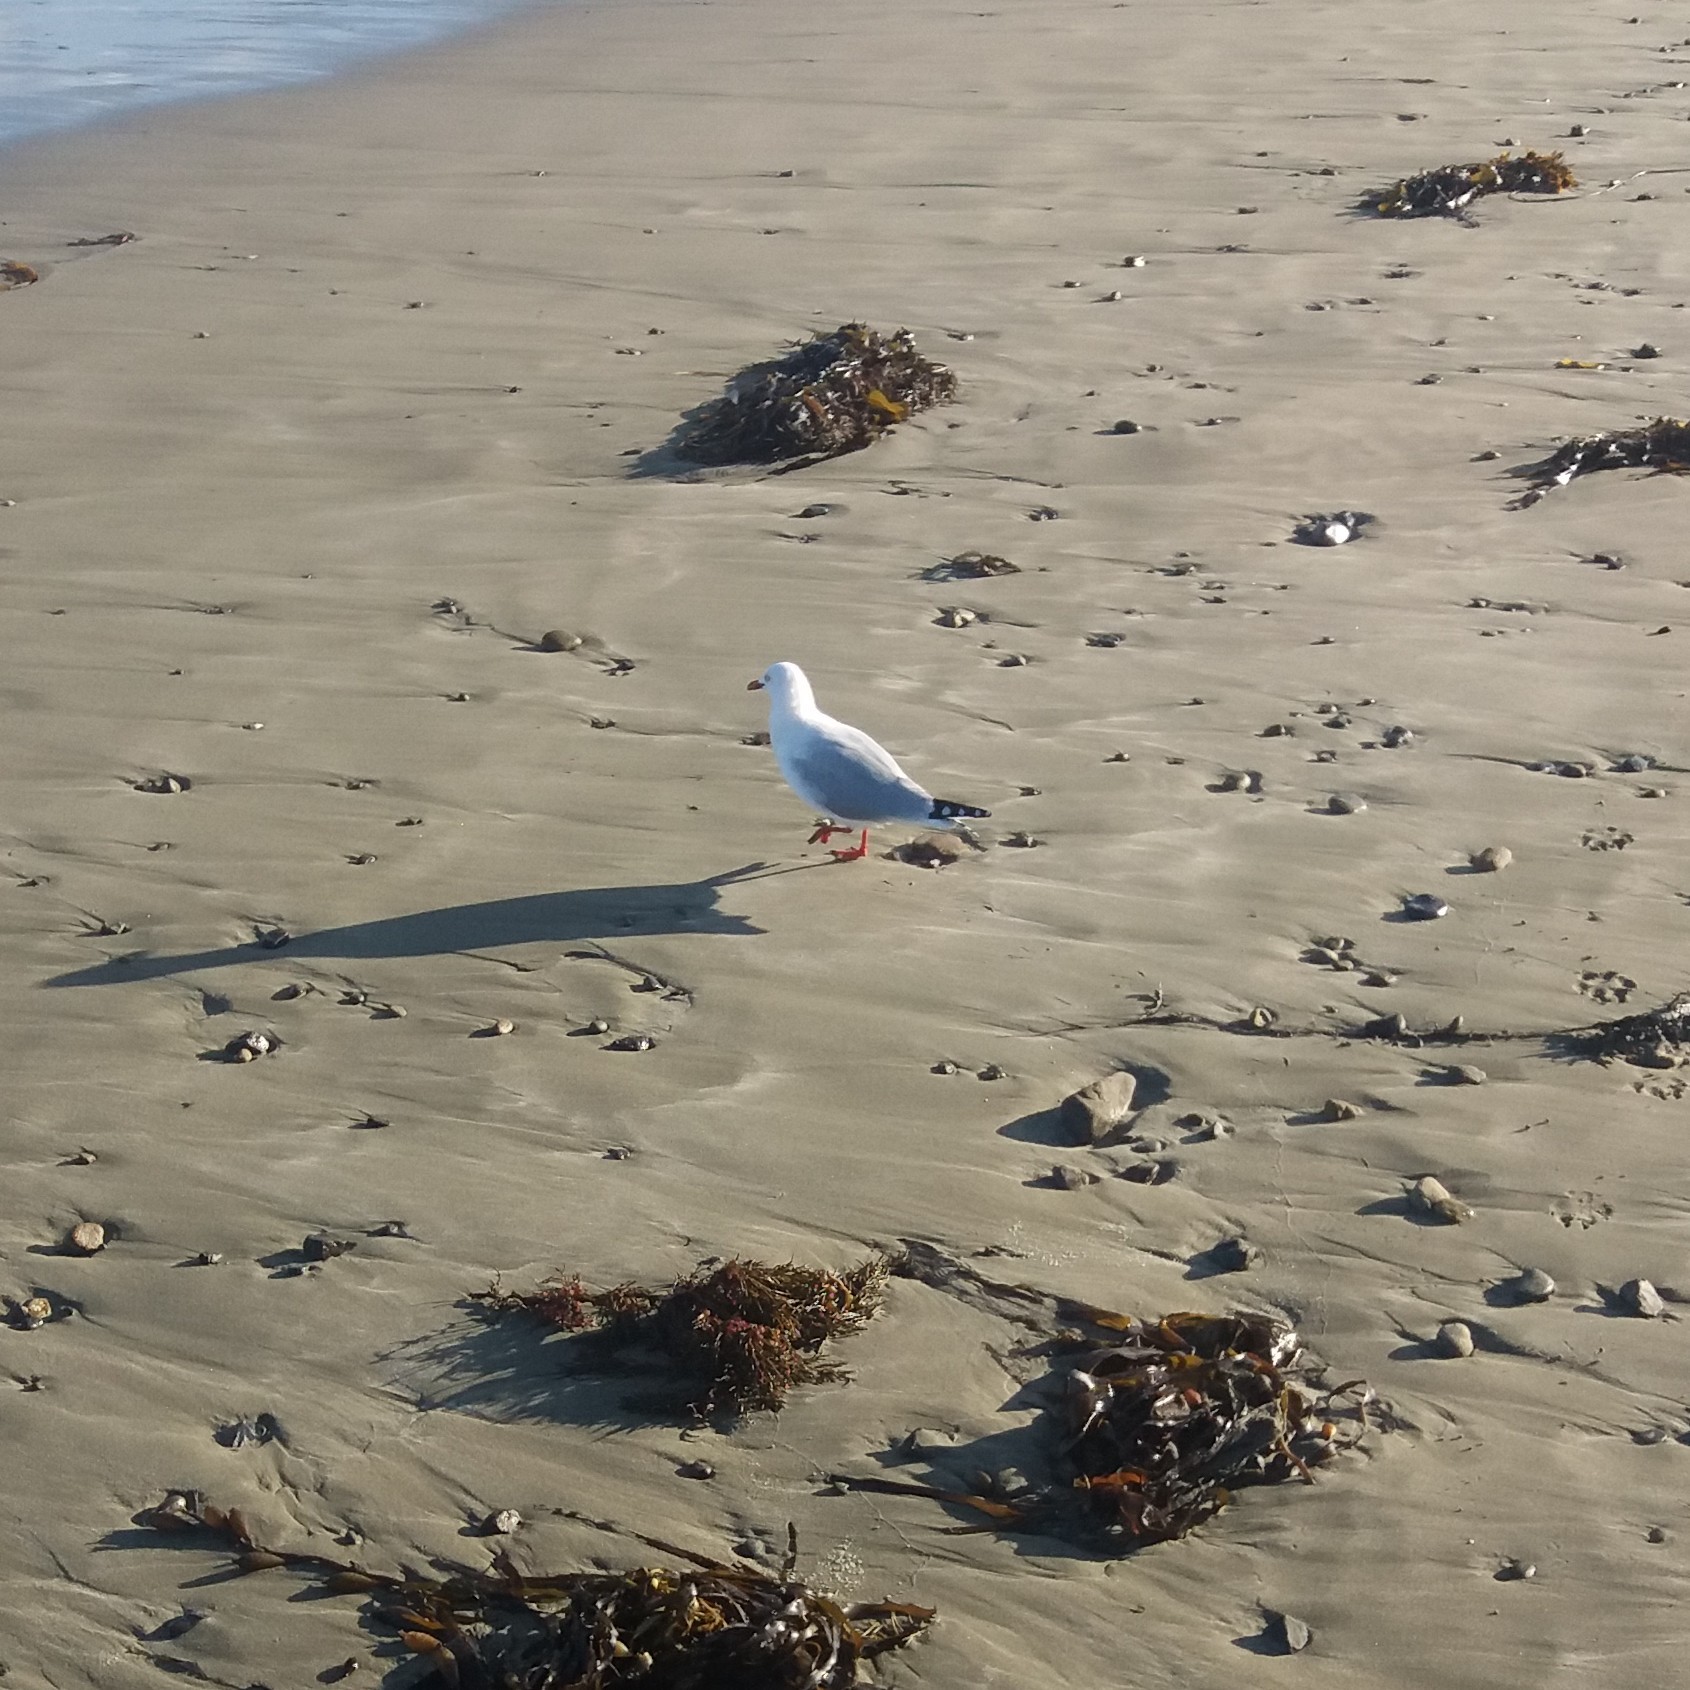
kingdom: Animalia
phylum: Chordata
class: Aves
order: Charadriiformes
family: Laridae
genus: Chroicocephalus
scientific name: Chroicocephalus novaehollandiae
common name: Silver gull
